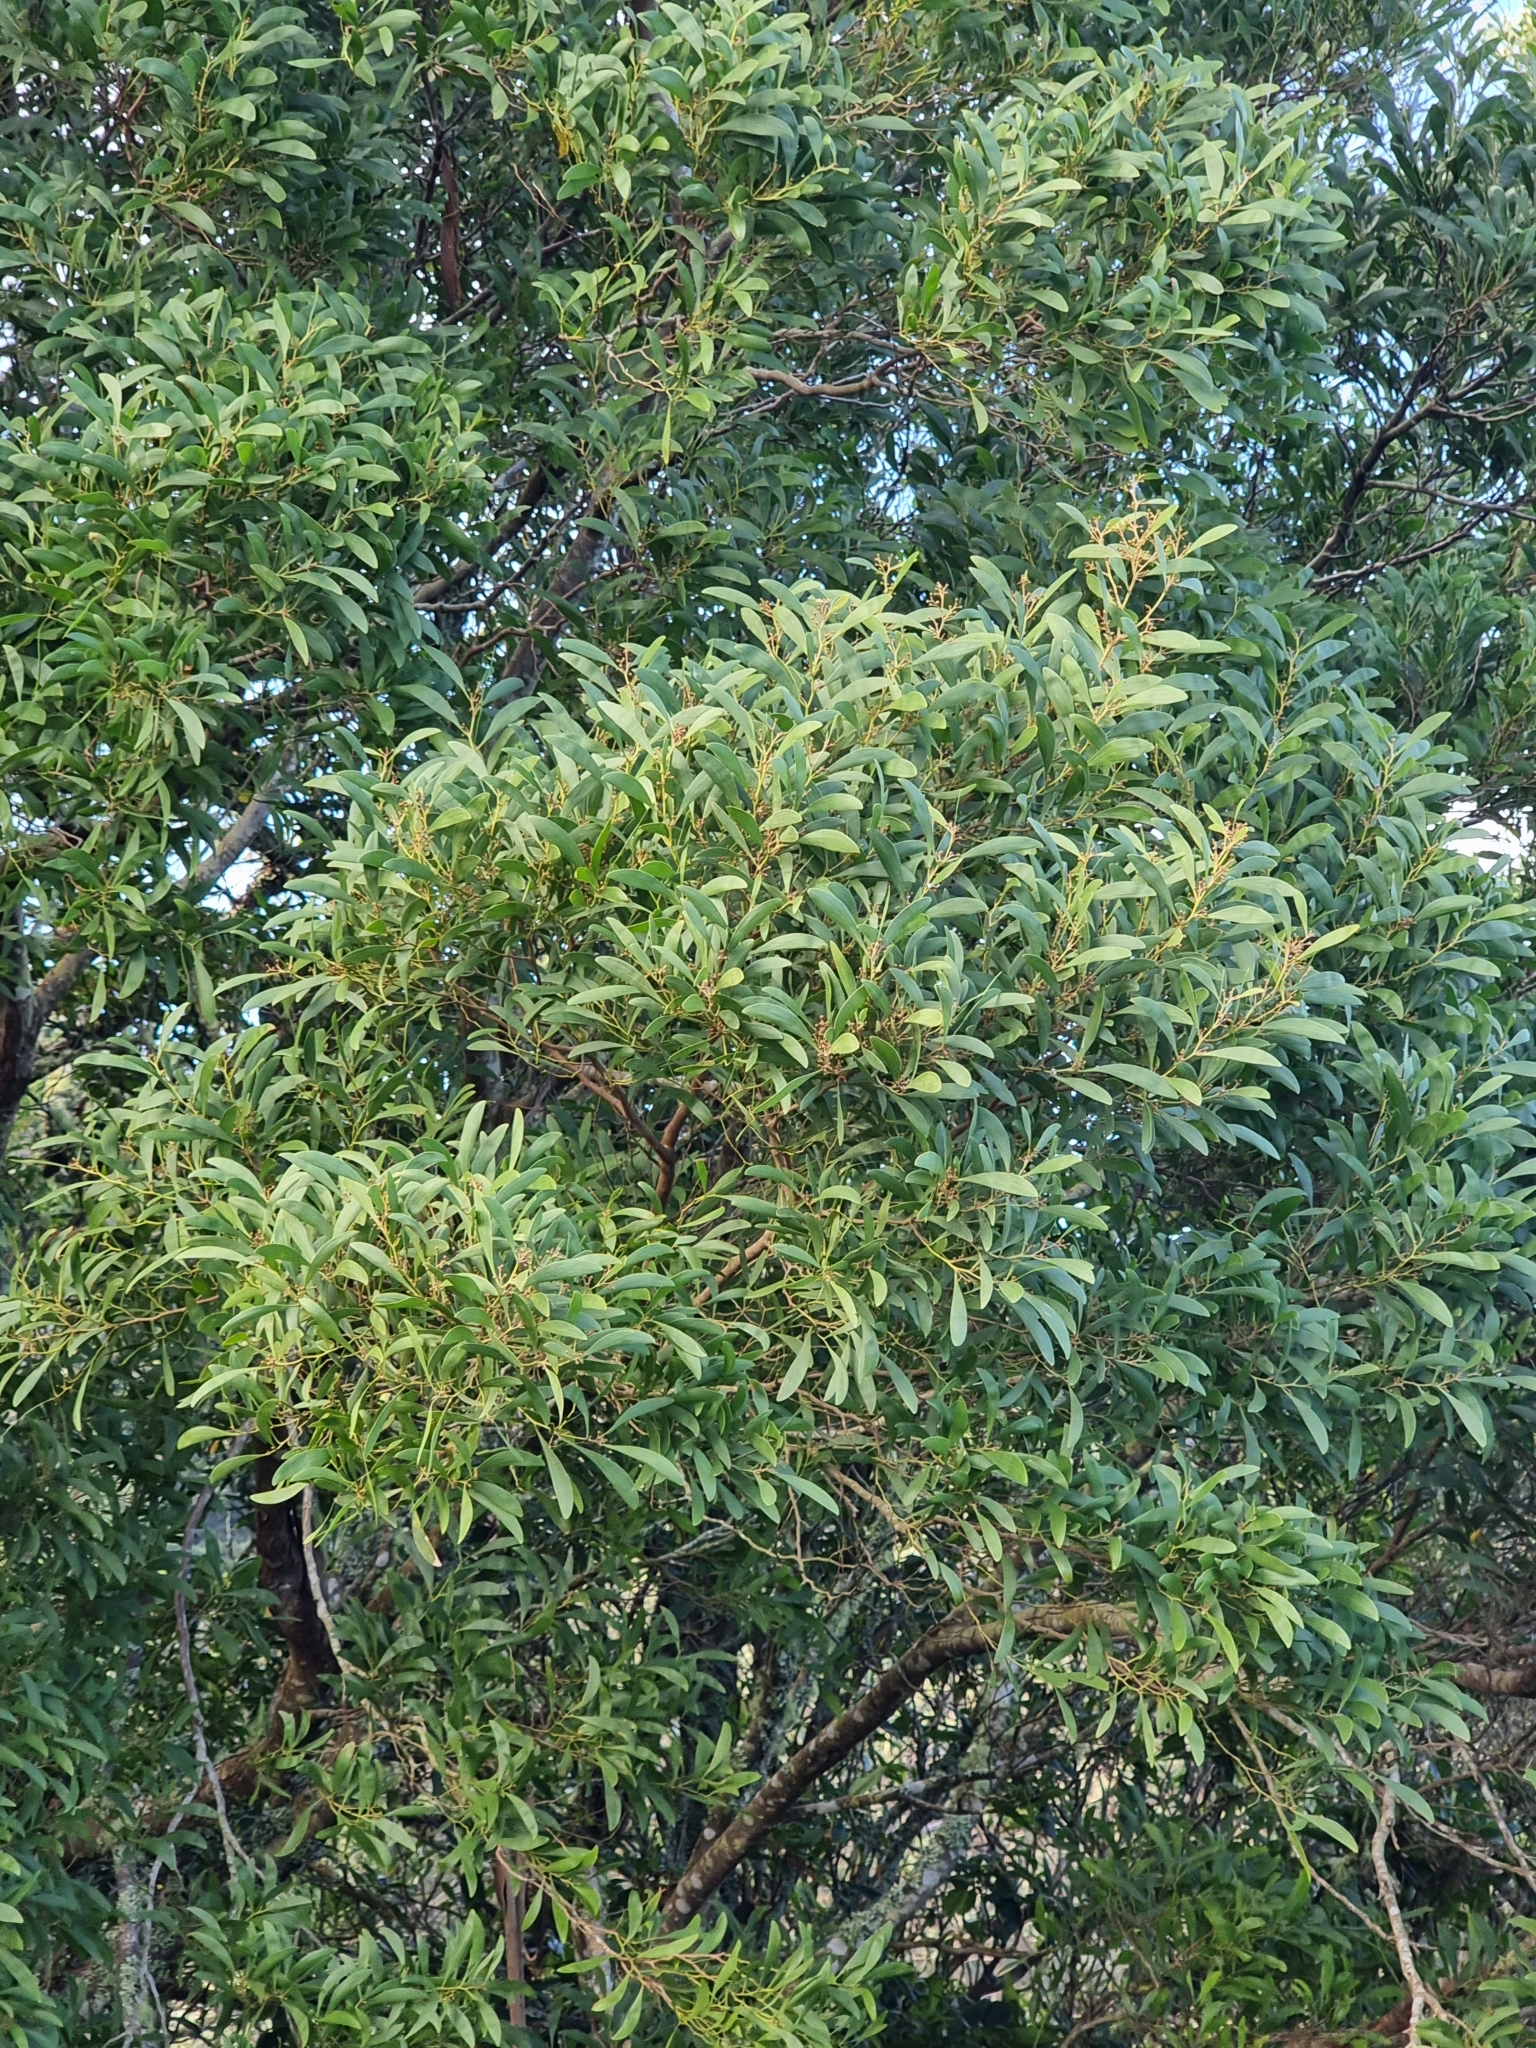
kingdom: Plantae
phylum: Tracheophyta
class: Magnoliopsida
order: Fabales
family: Fabaceae
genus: Acacia
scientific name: Acacia melanoxylon
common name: Blackwood
